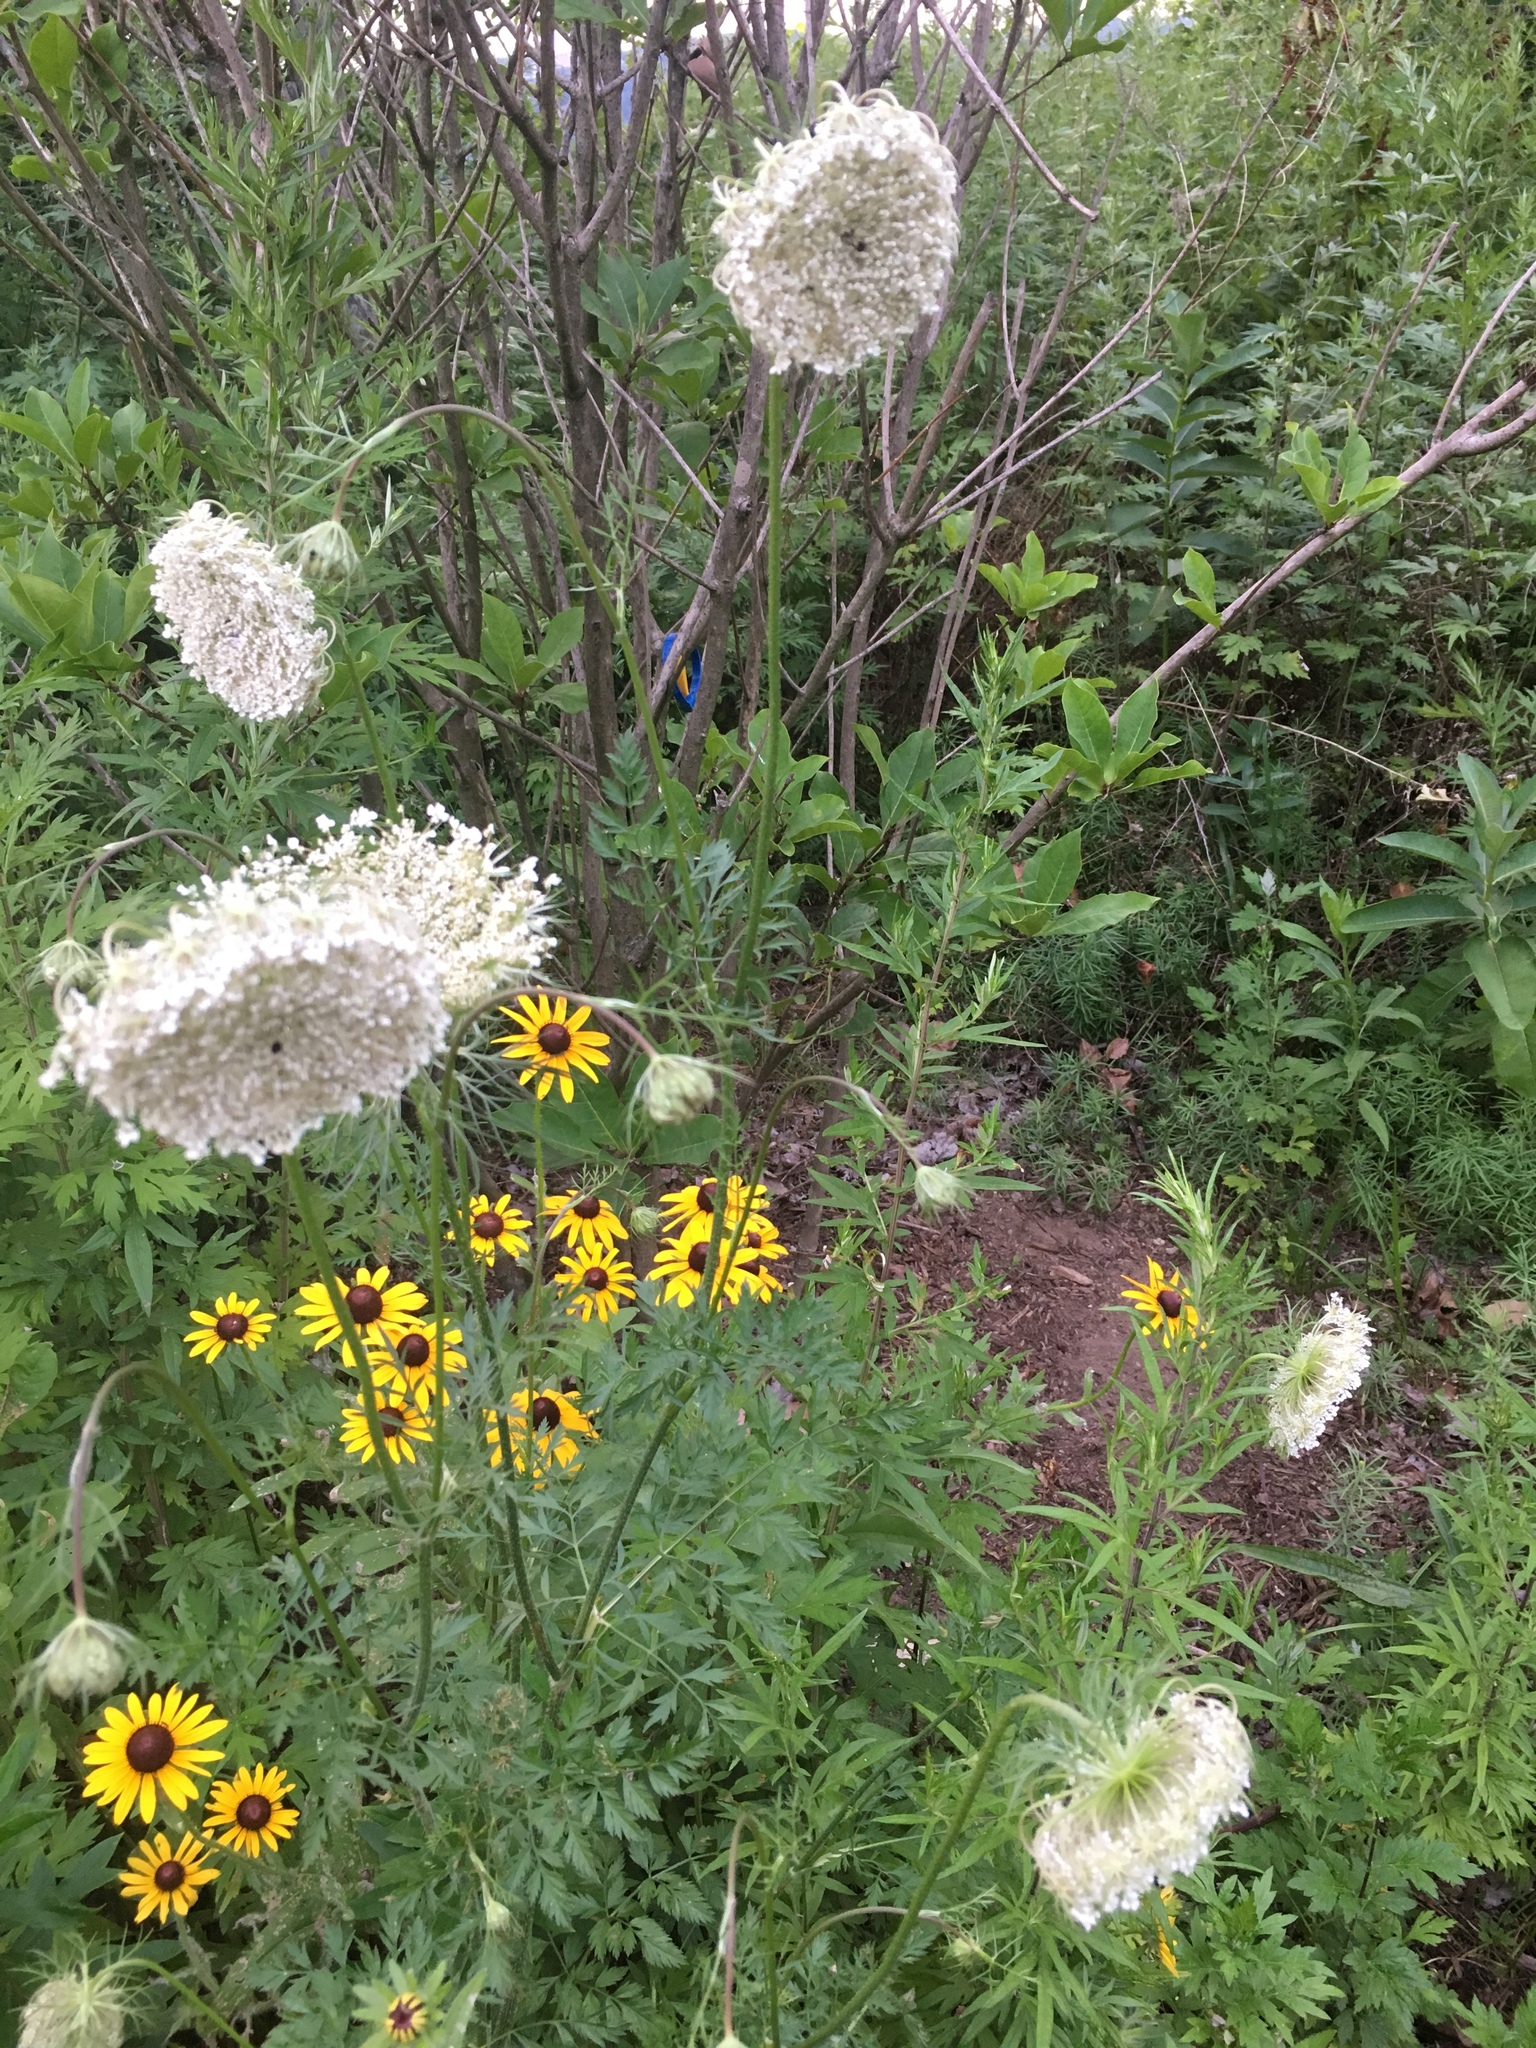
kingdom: Plantae
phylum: Tracheophyta
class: Magnoliopsida
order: Apiales
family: Apiaceae
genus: Daucus
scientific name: Daucus carota
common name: Wild carrot
